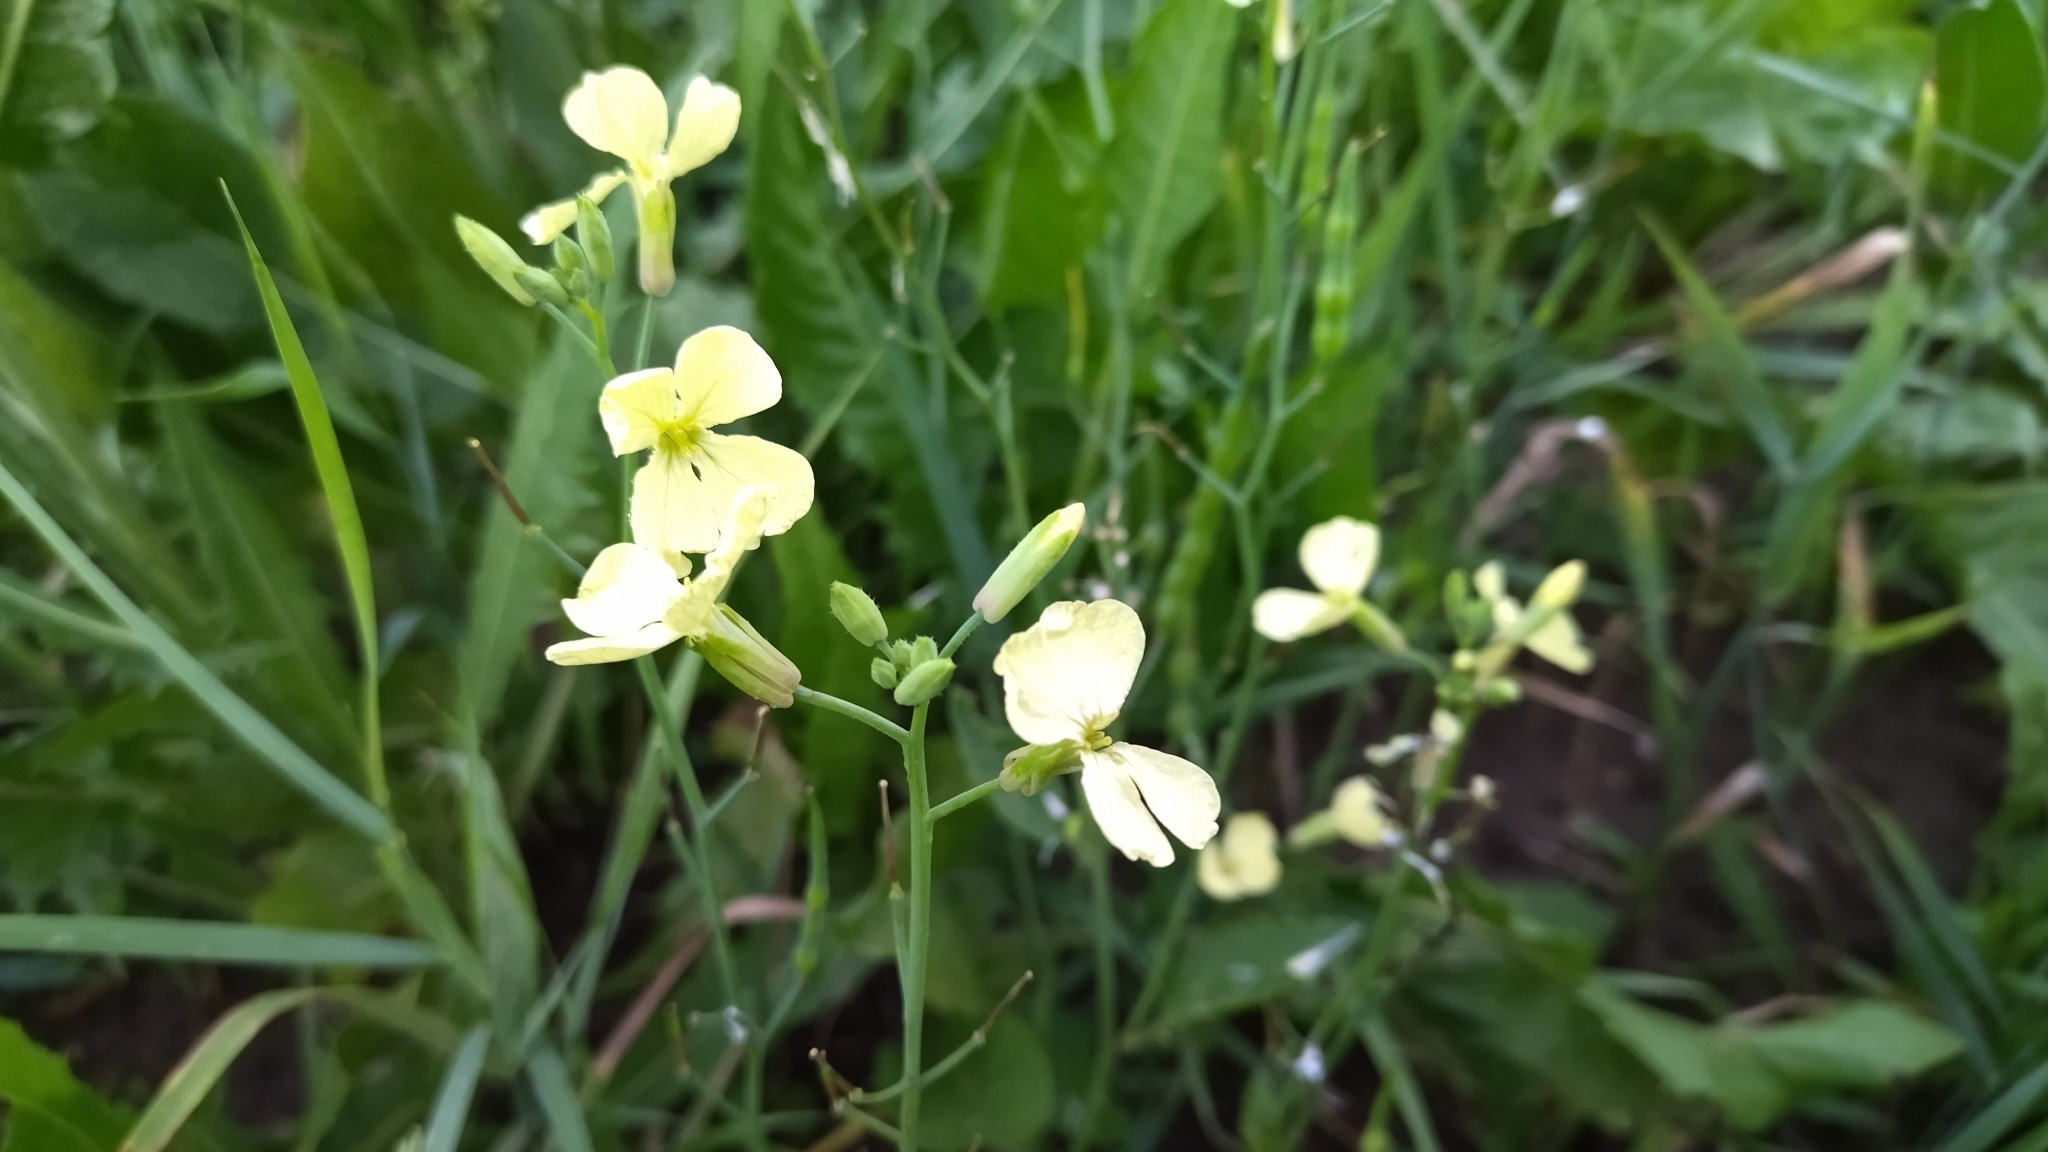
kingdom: Plantae
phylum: Tracheophyta
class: Magnoliopsida
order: Brassicales
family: Brassicaceae
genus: Raphanus
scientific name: Raphanus raphanistrum
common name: Wild radish
